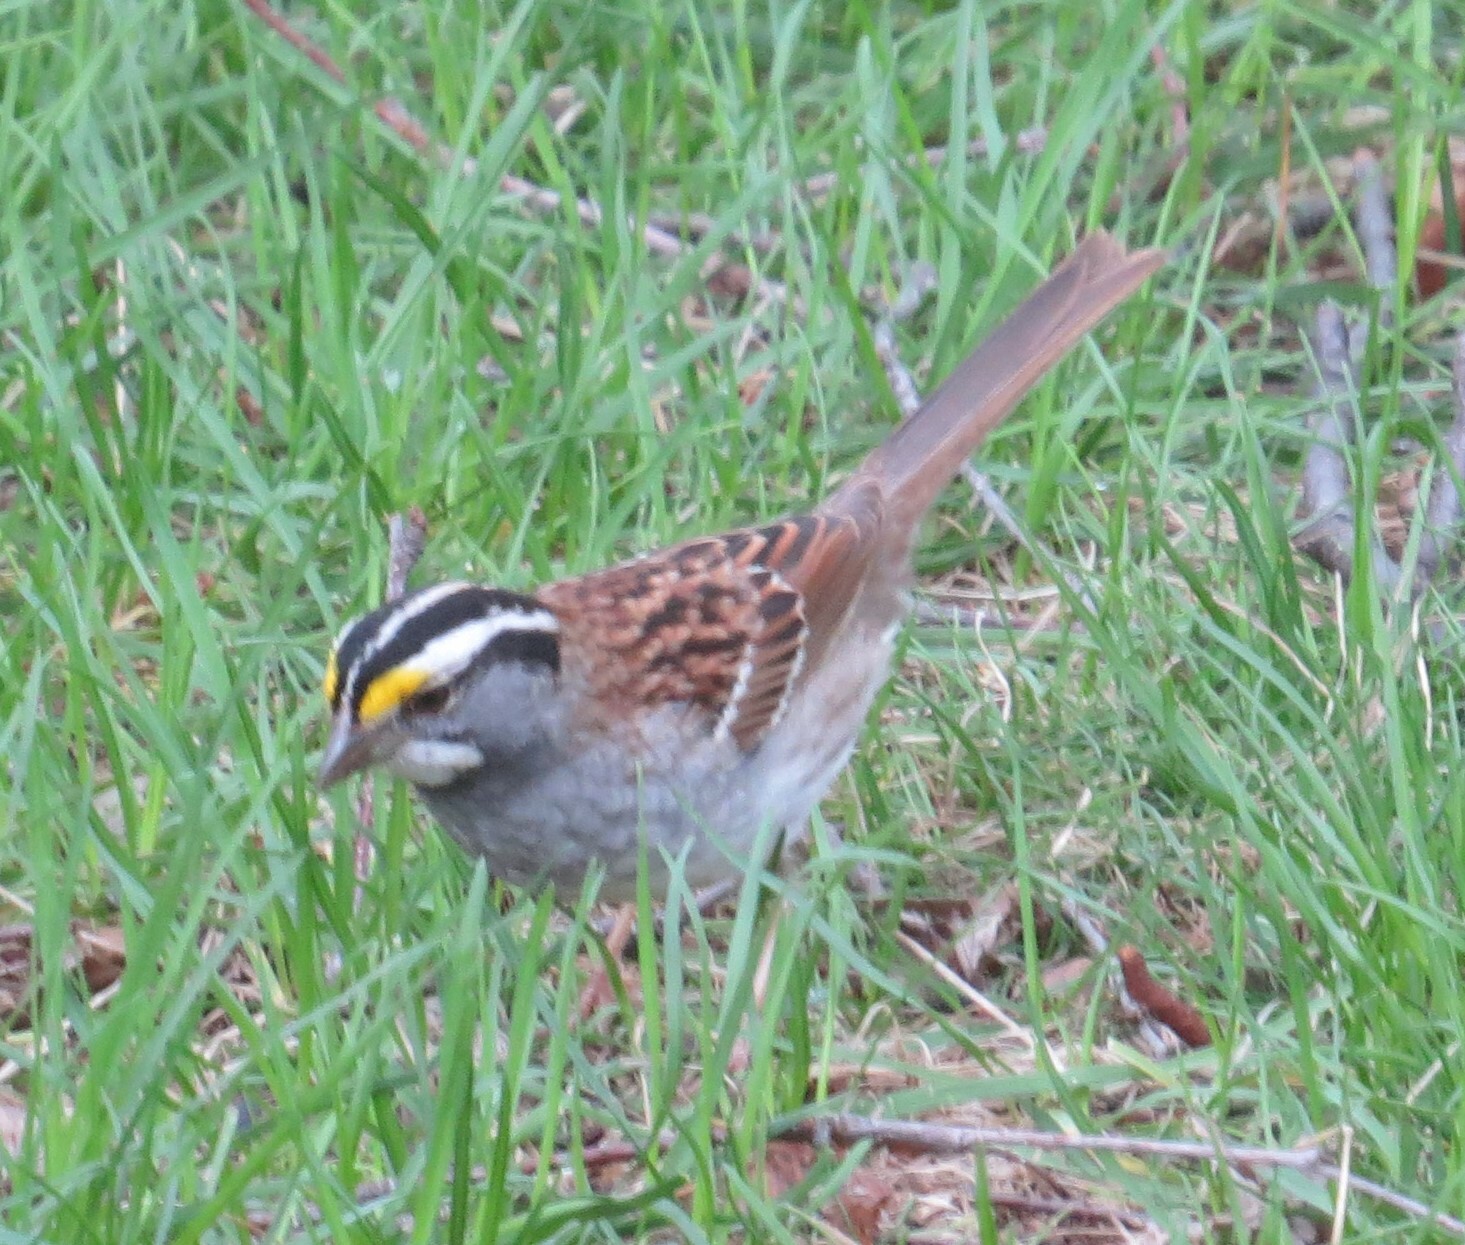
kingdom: Animalia
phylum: Chordata
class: Aves
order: Passeriformes
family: Passerellidae
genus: Zonotrichia
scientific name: Zonotrichia albicollis
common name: White-throated sparrow
